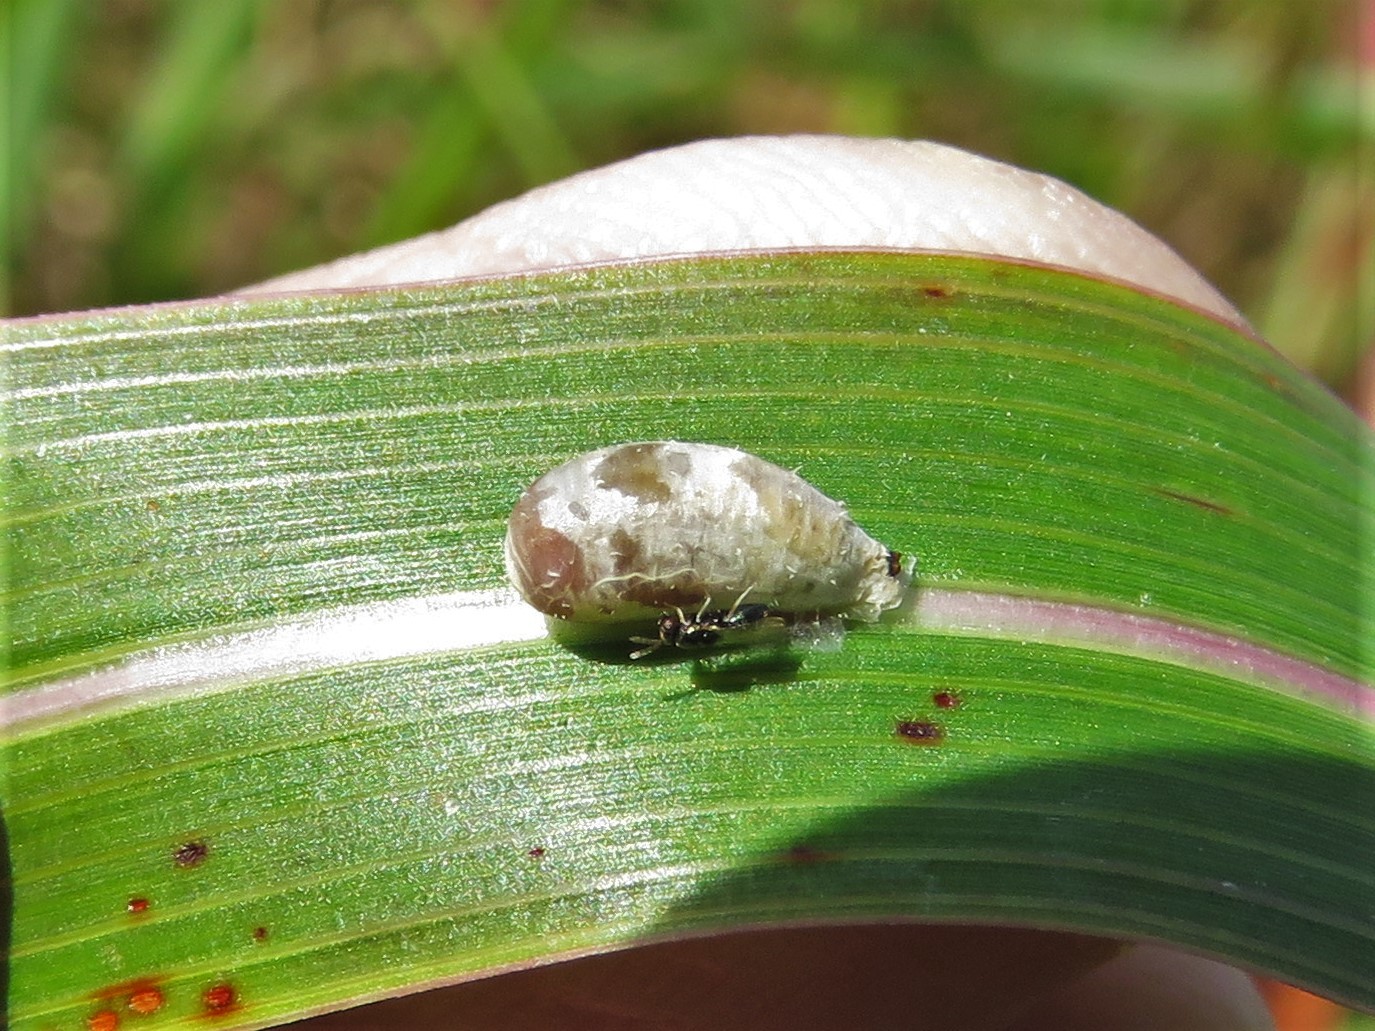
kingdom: Animalia
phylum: Arthropoda
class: Insecta
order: Diptera
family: Syrphidae
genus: Dioprosopa
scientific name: Dioprosopa clavatus
